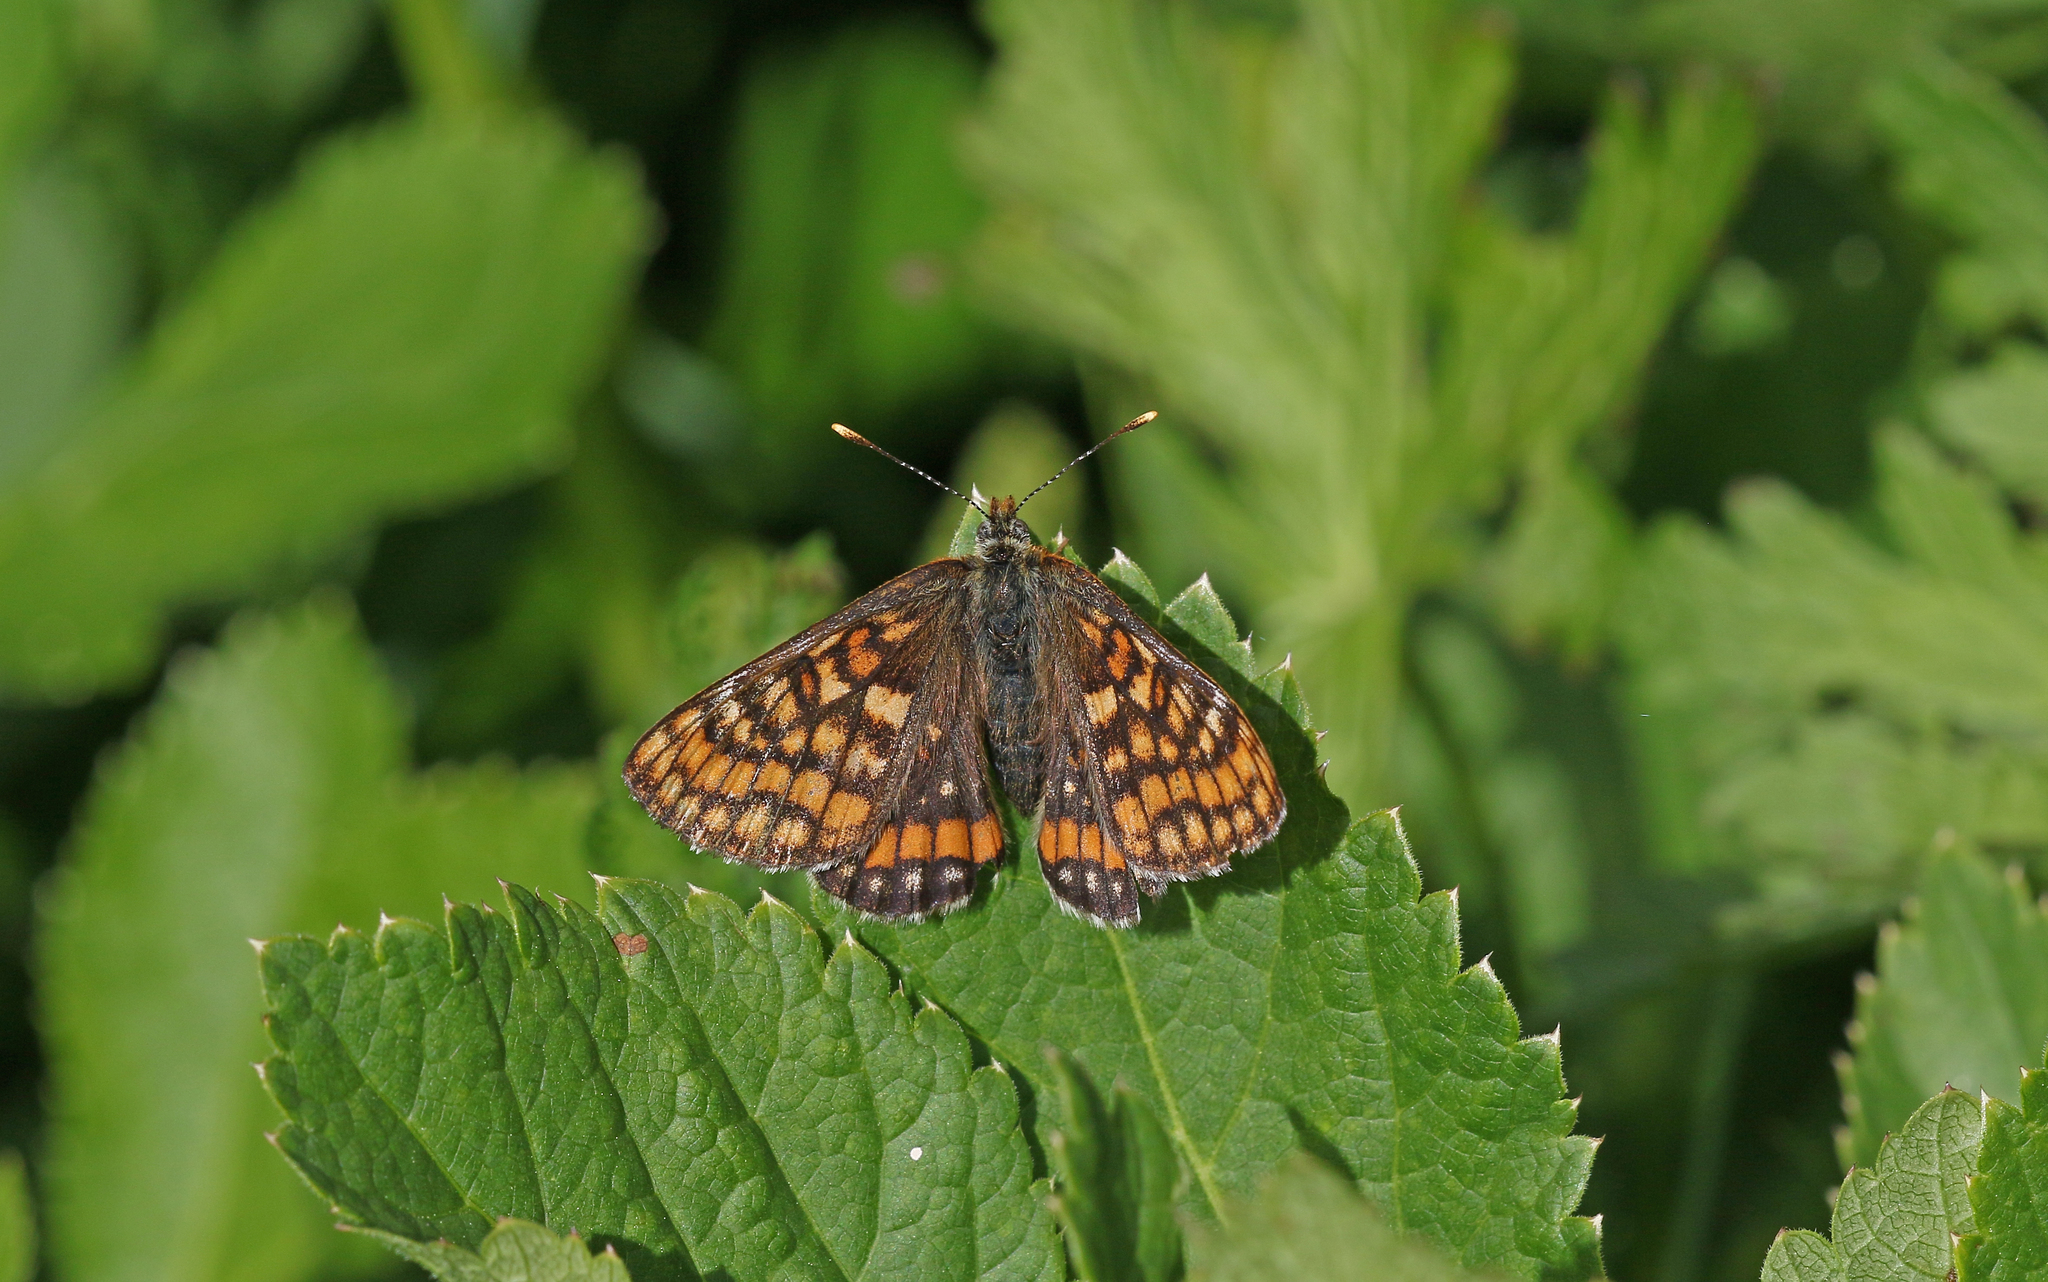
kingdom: Animalia
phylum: Arthropoda
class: Insecta
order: Lepidoptera
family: Nymphalidae
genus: Hypodryas
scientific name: Hypodryas intermedia
